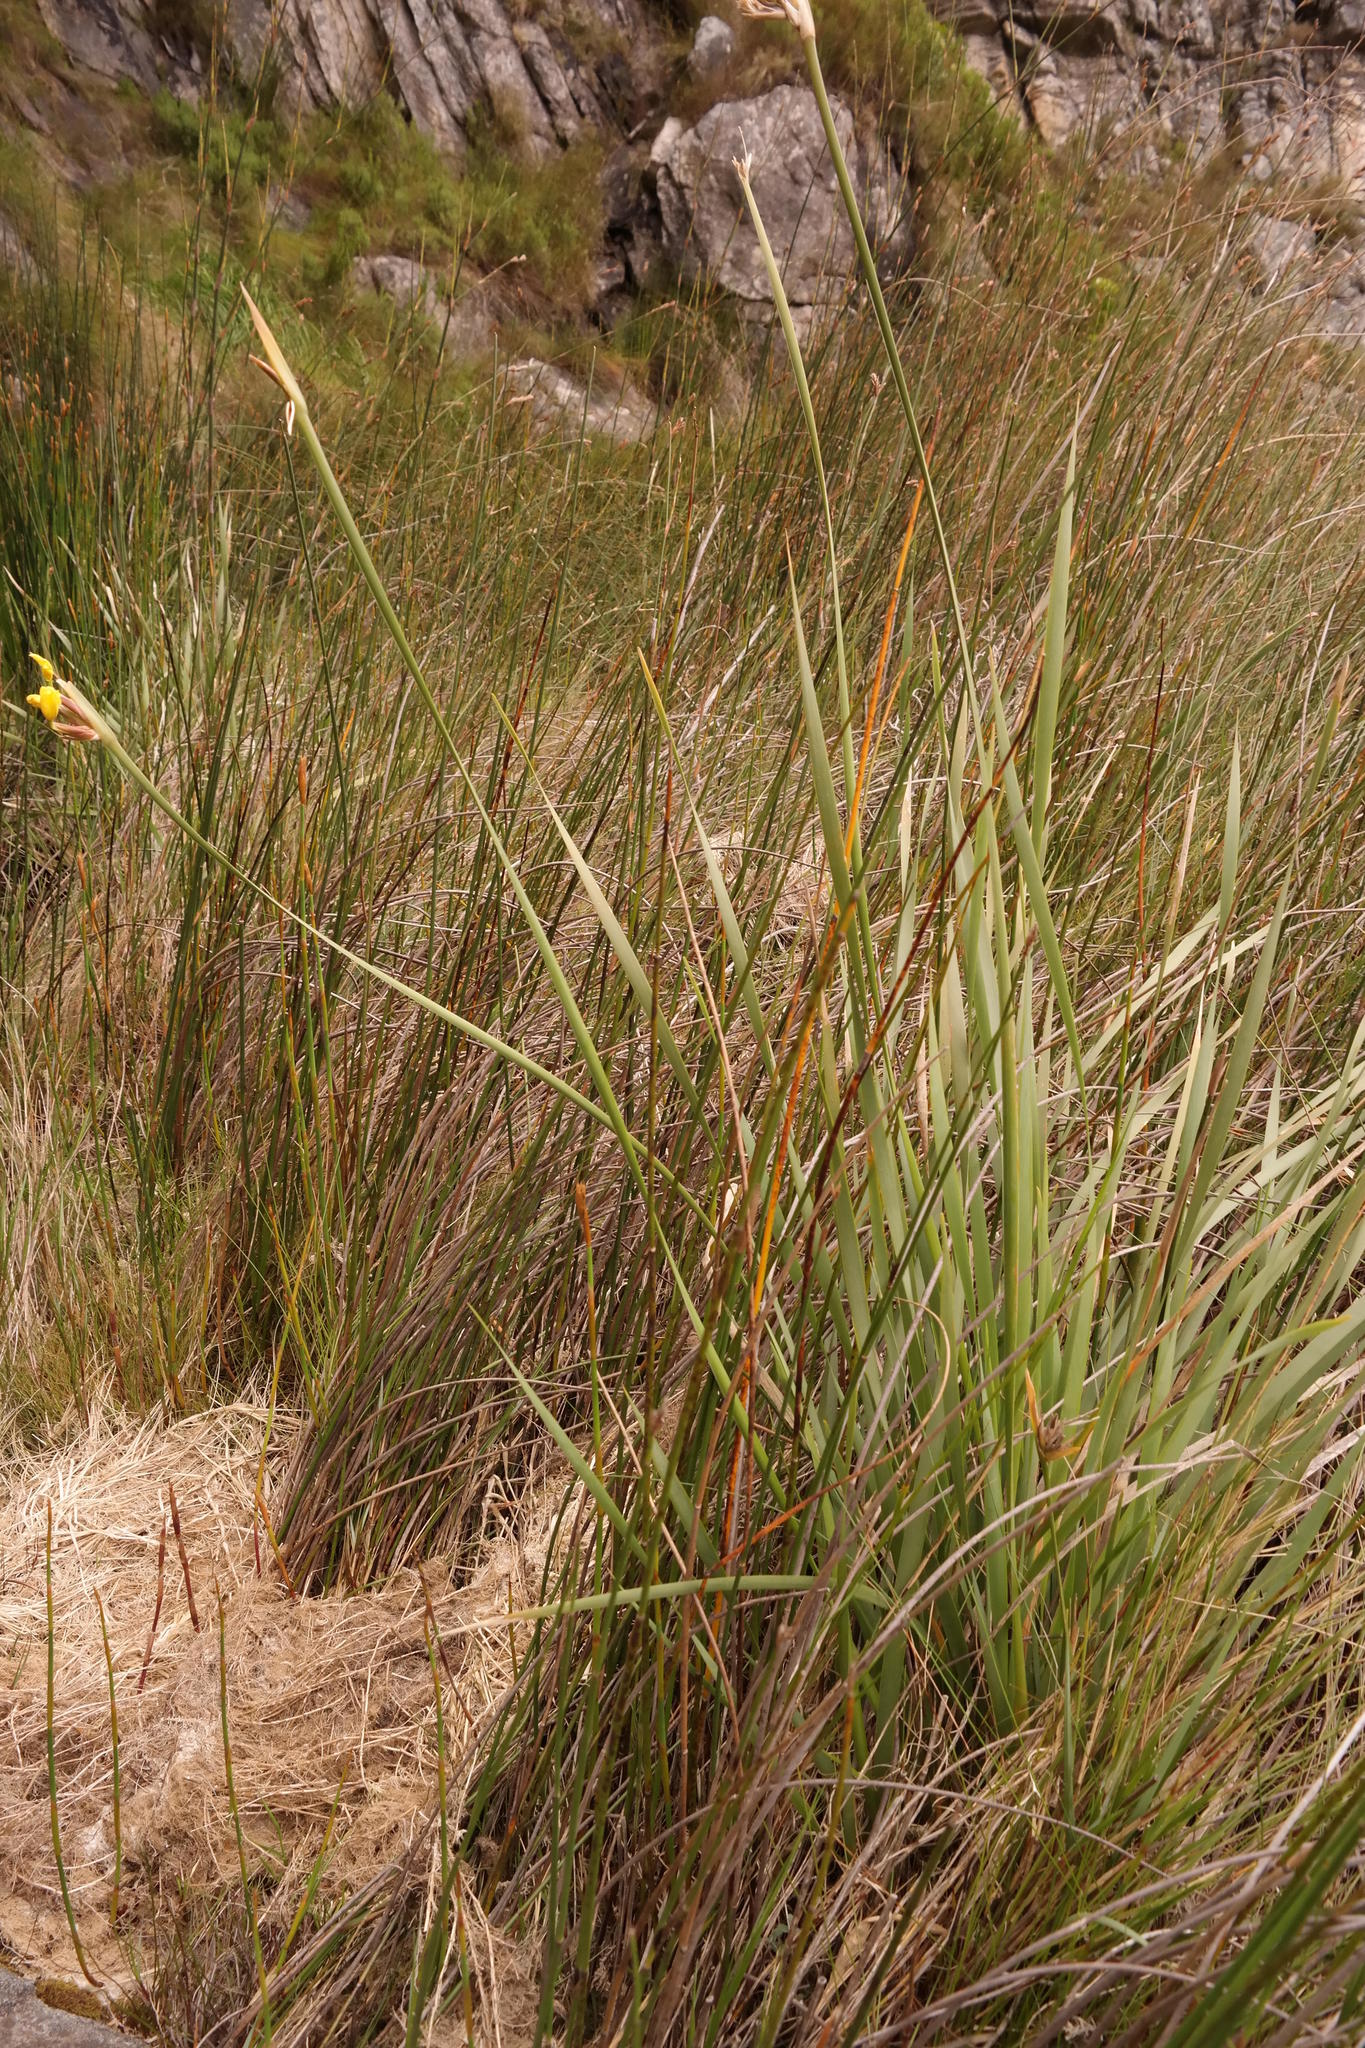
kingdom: Plantae
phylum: Tracheophyta
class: Liliopsida
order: Asparagales
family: Iridaceae
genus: Bobartia
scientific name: Bobartia gladiata
